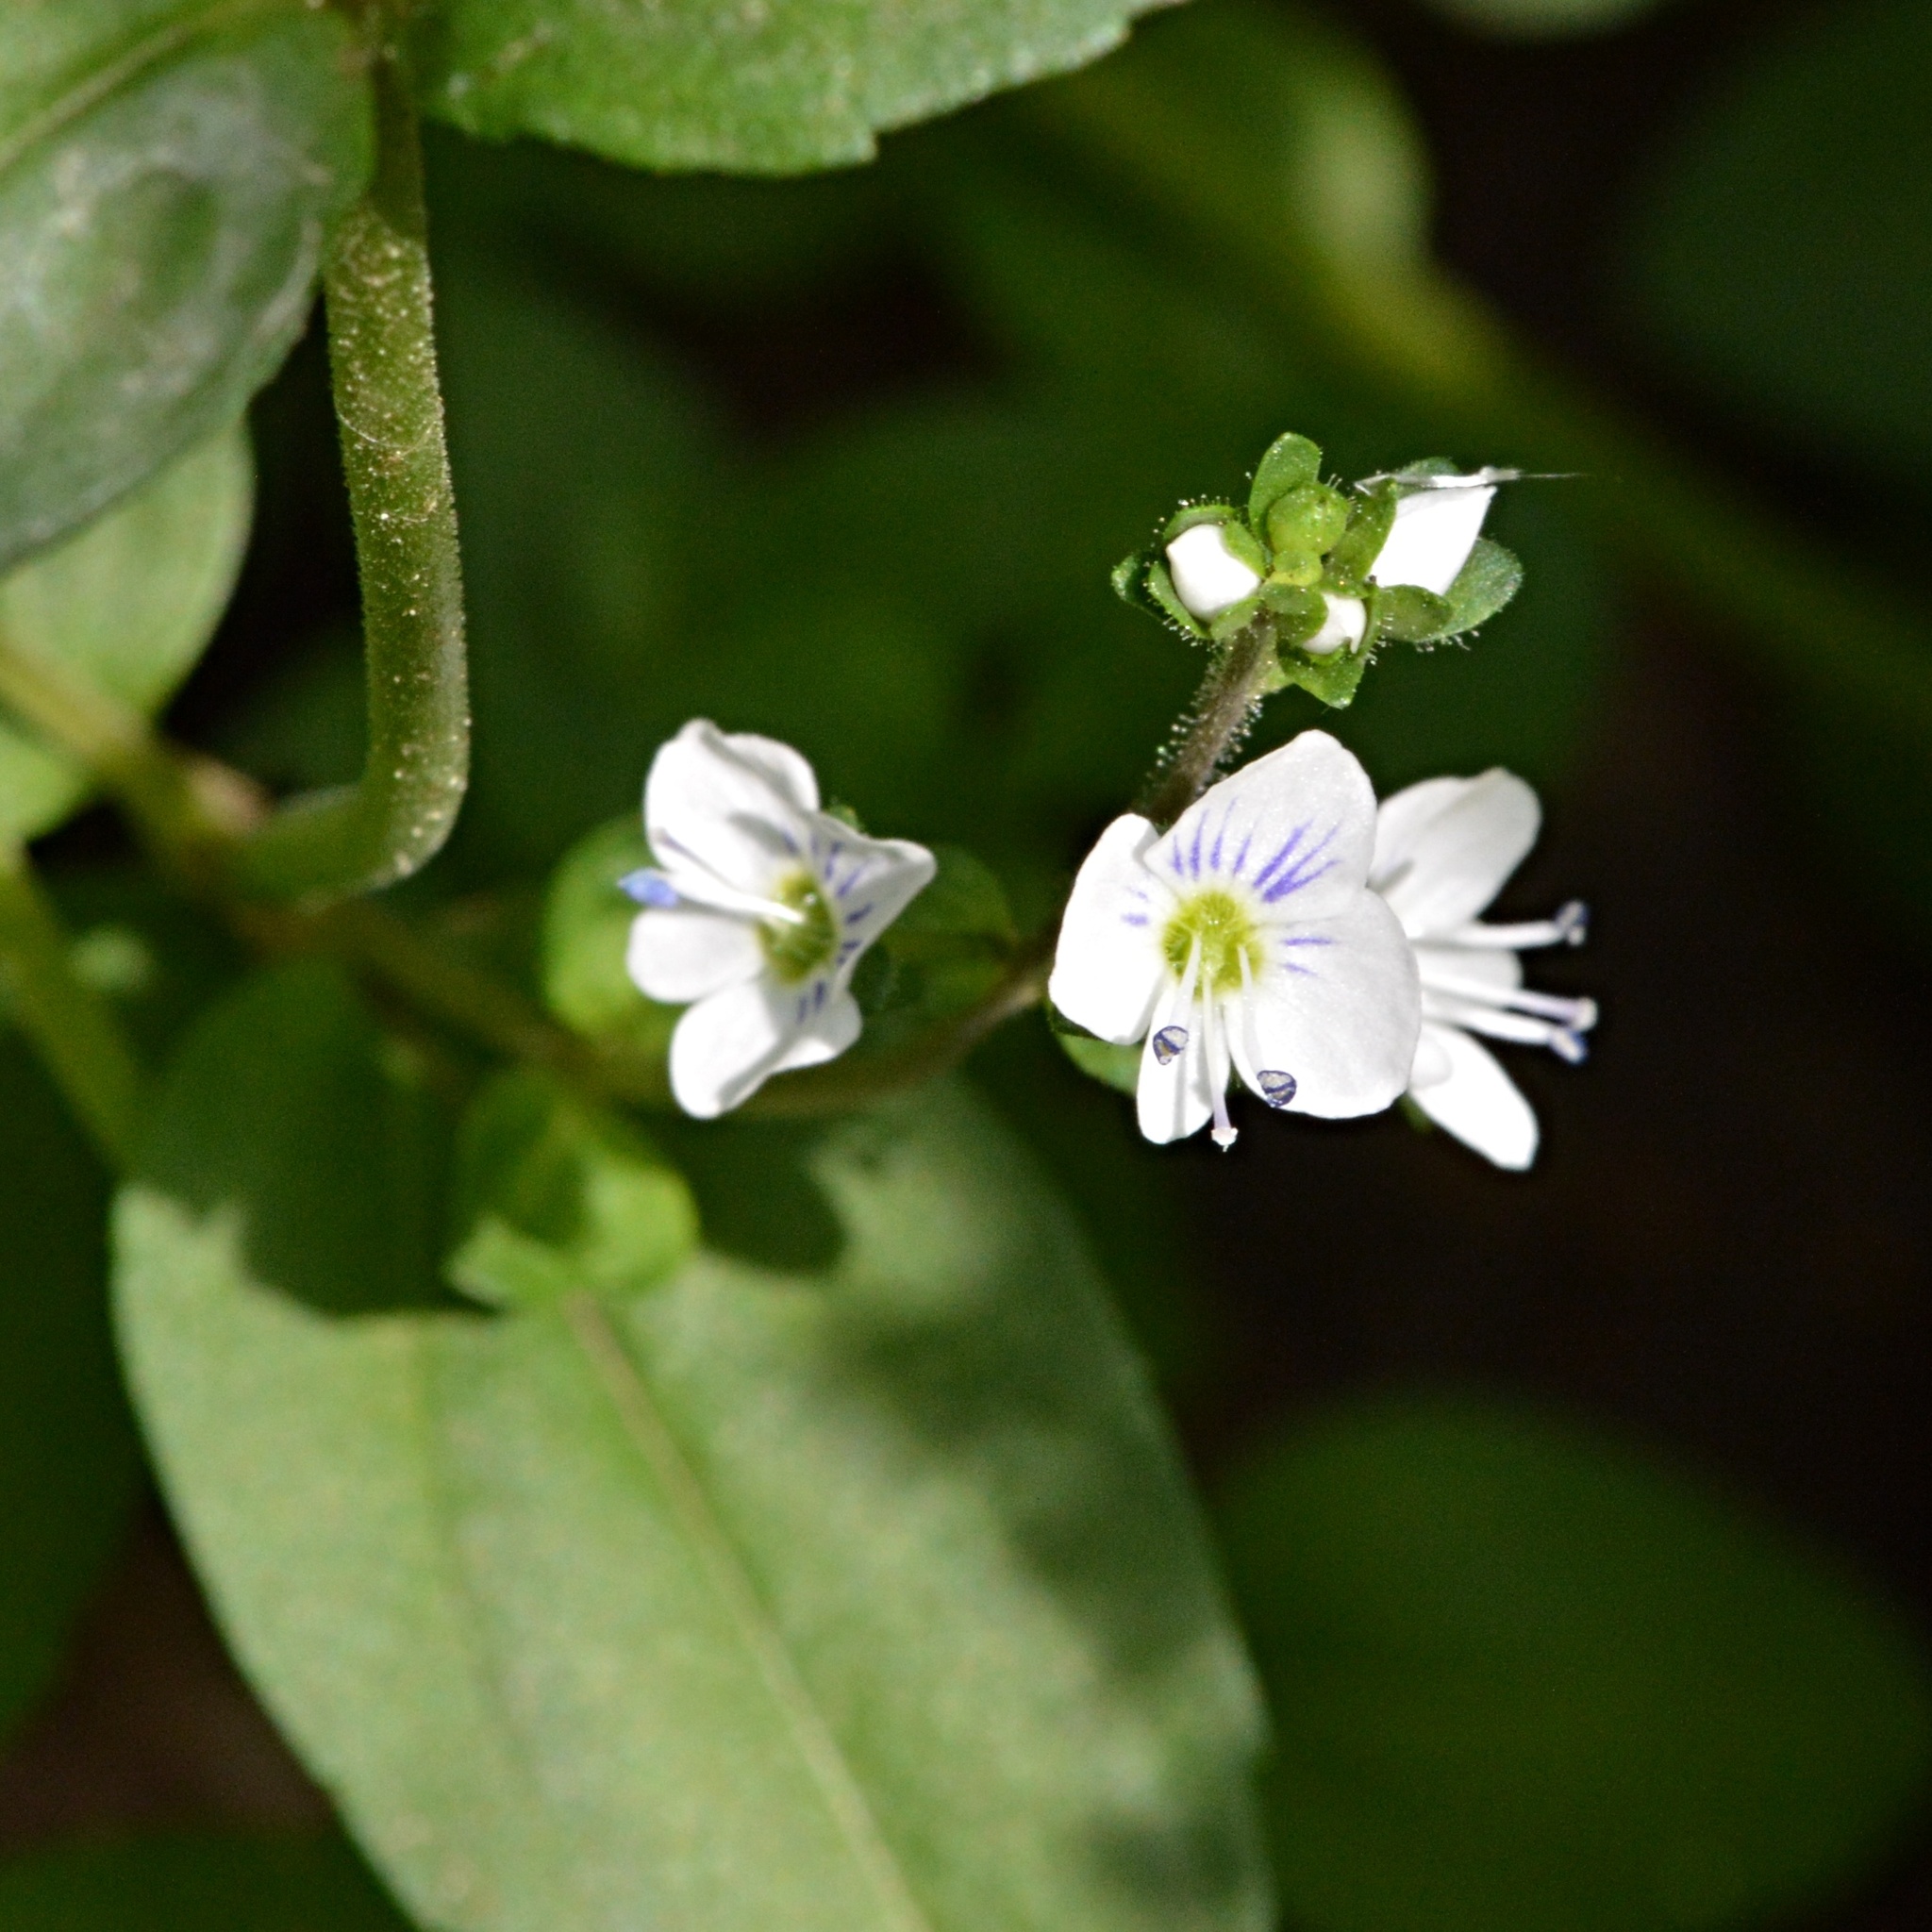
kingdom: Plantae
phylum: Tracheophyta
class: Magnoliopsida
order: Lamiales
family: Plantaginaceae
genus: Veronica
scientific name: Veronica serpyllifolia
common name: Thyme-leaved speedwell
